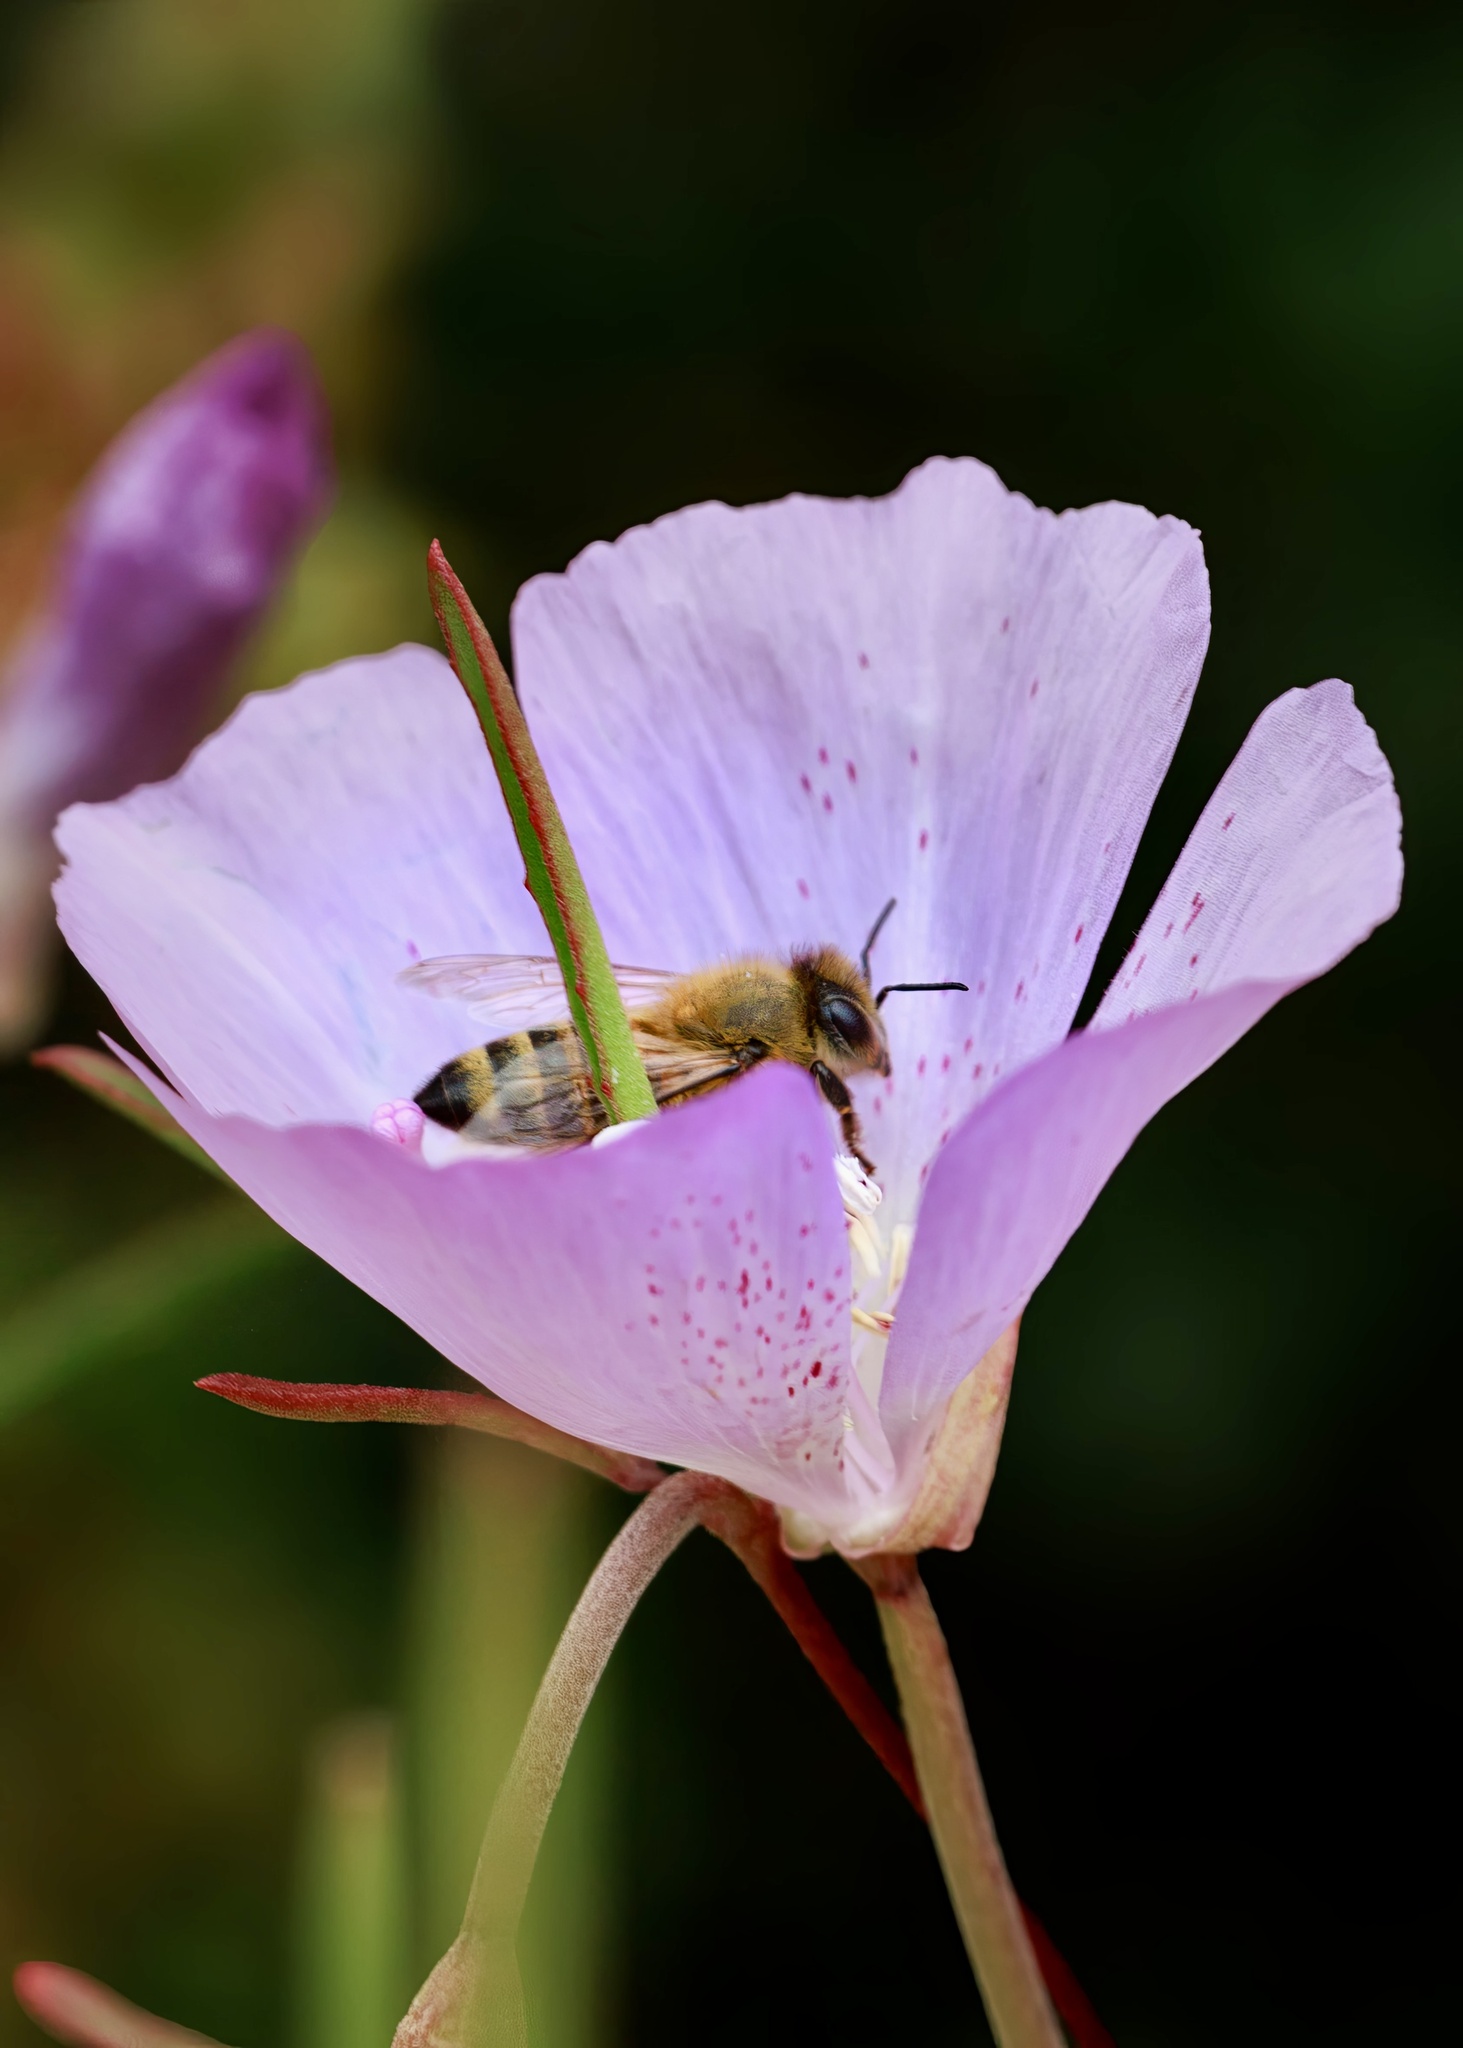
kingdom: Animalia
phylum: Arthropoda
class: Insecta
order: Hymenoptera
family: Apidae
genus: Apis
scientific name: Apis mellifera
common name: Honey bee
